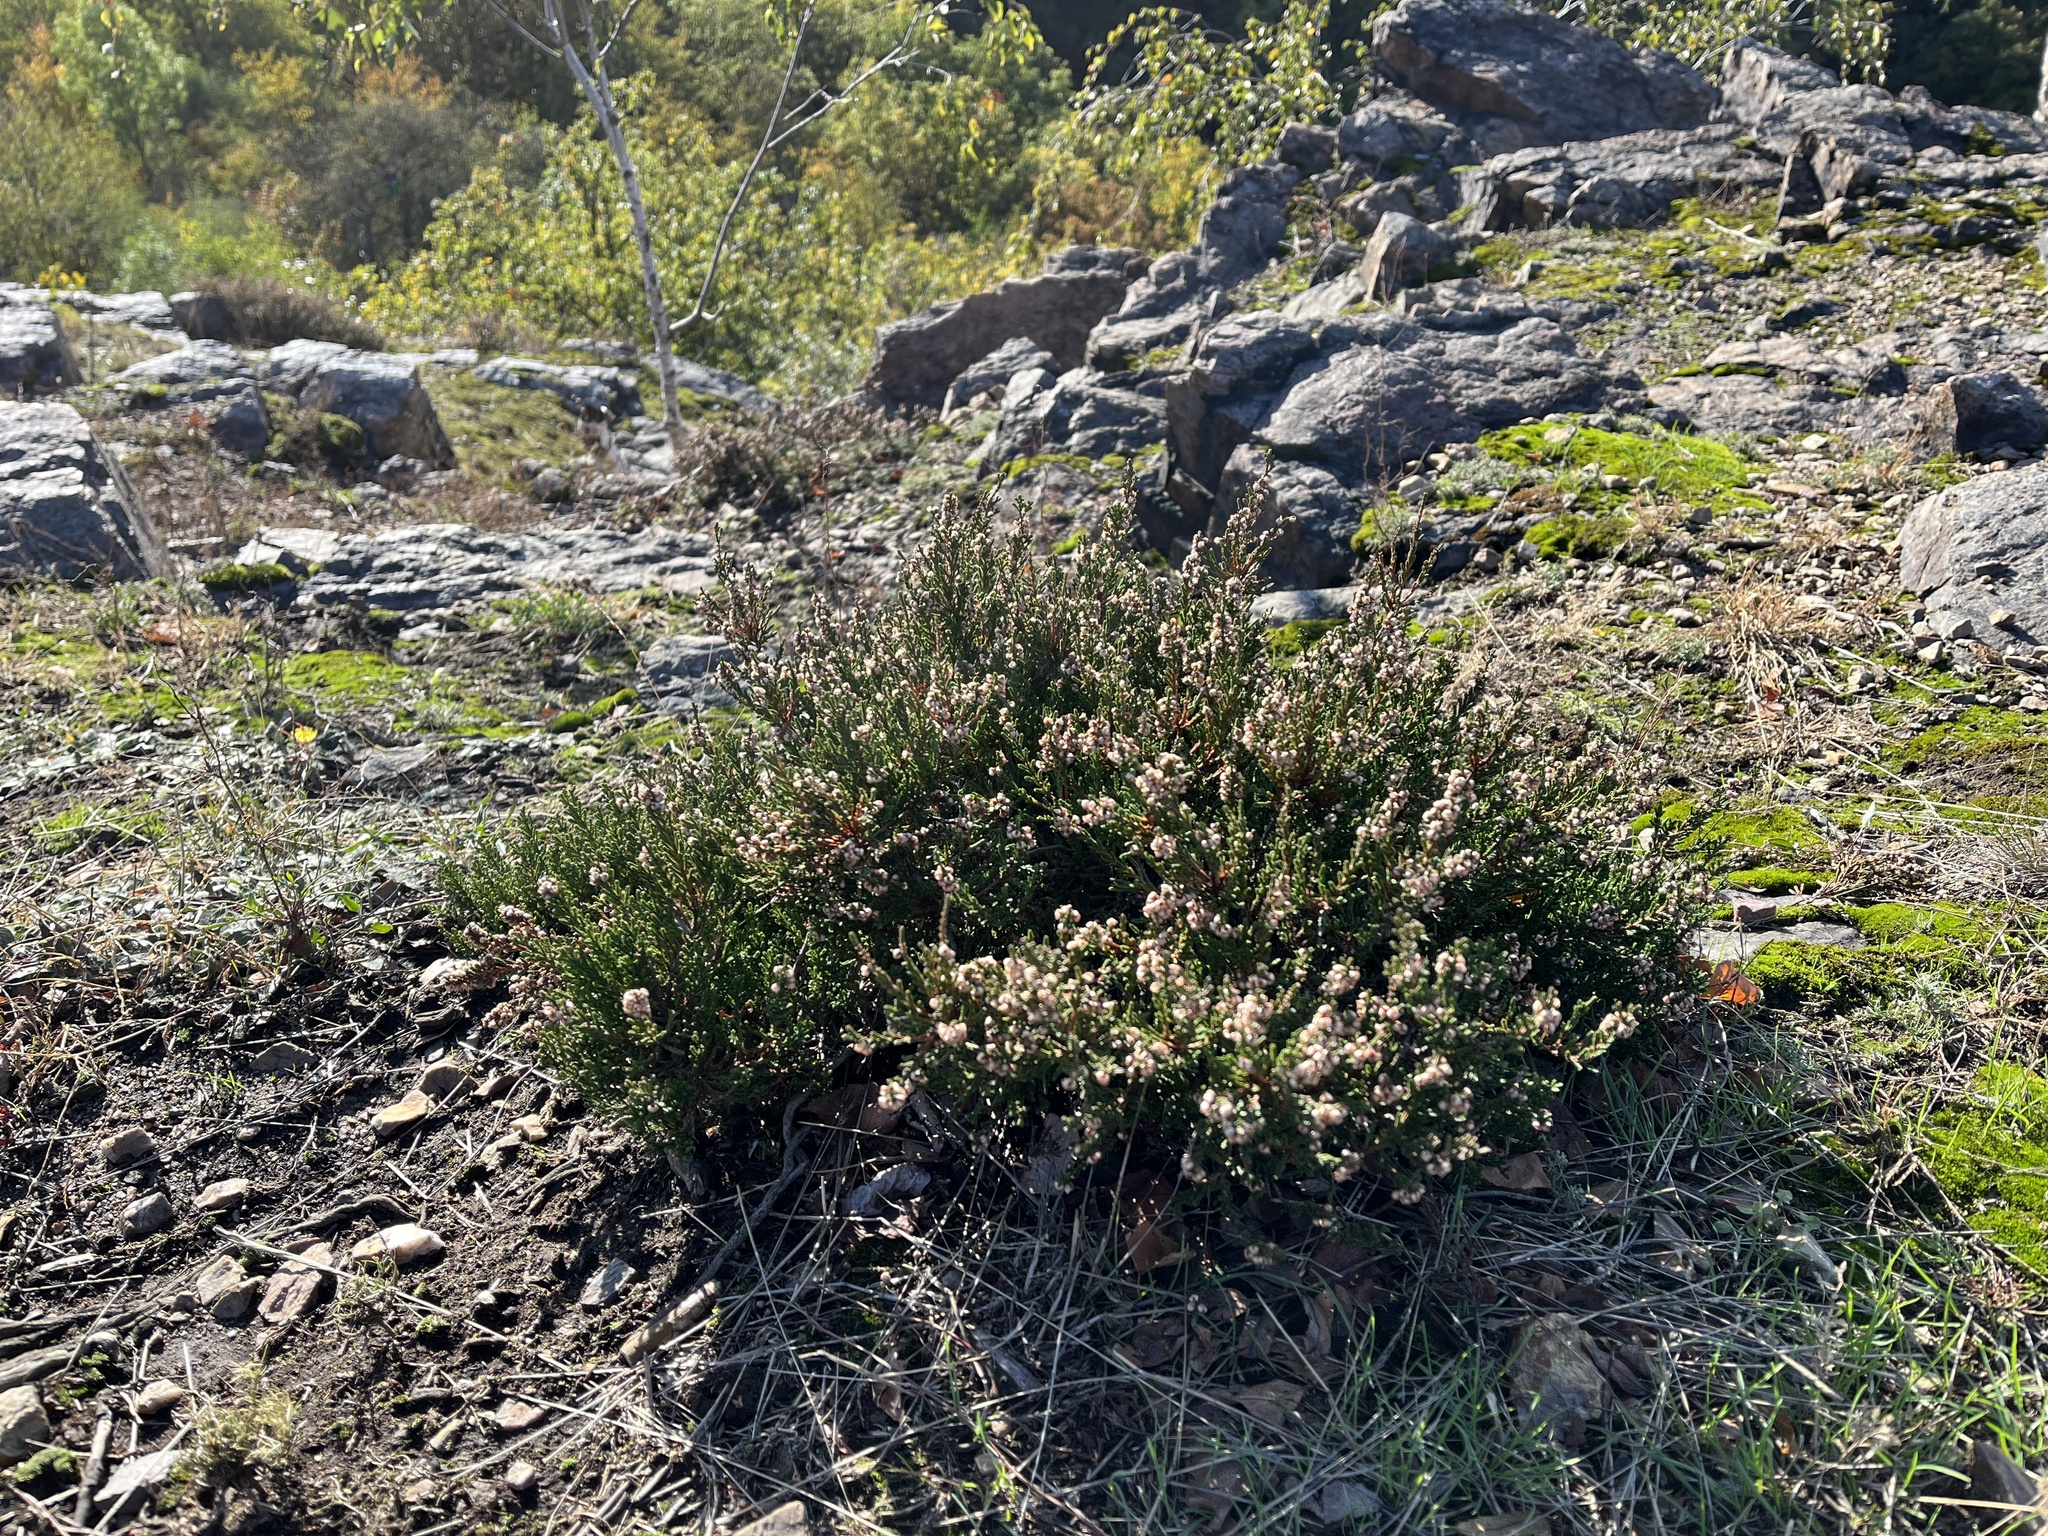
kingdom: Plantae
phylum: Tracheophyta
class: Magnoliopsida
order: Ericales
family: Ericaceae
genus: Calluna
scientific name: Calluna vulgaris
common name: Heather
